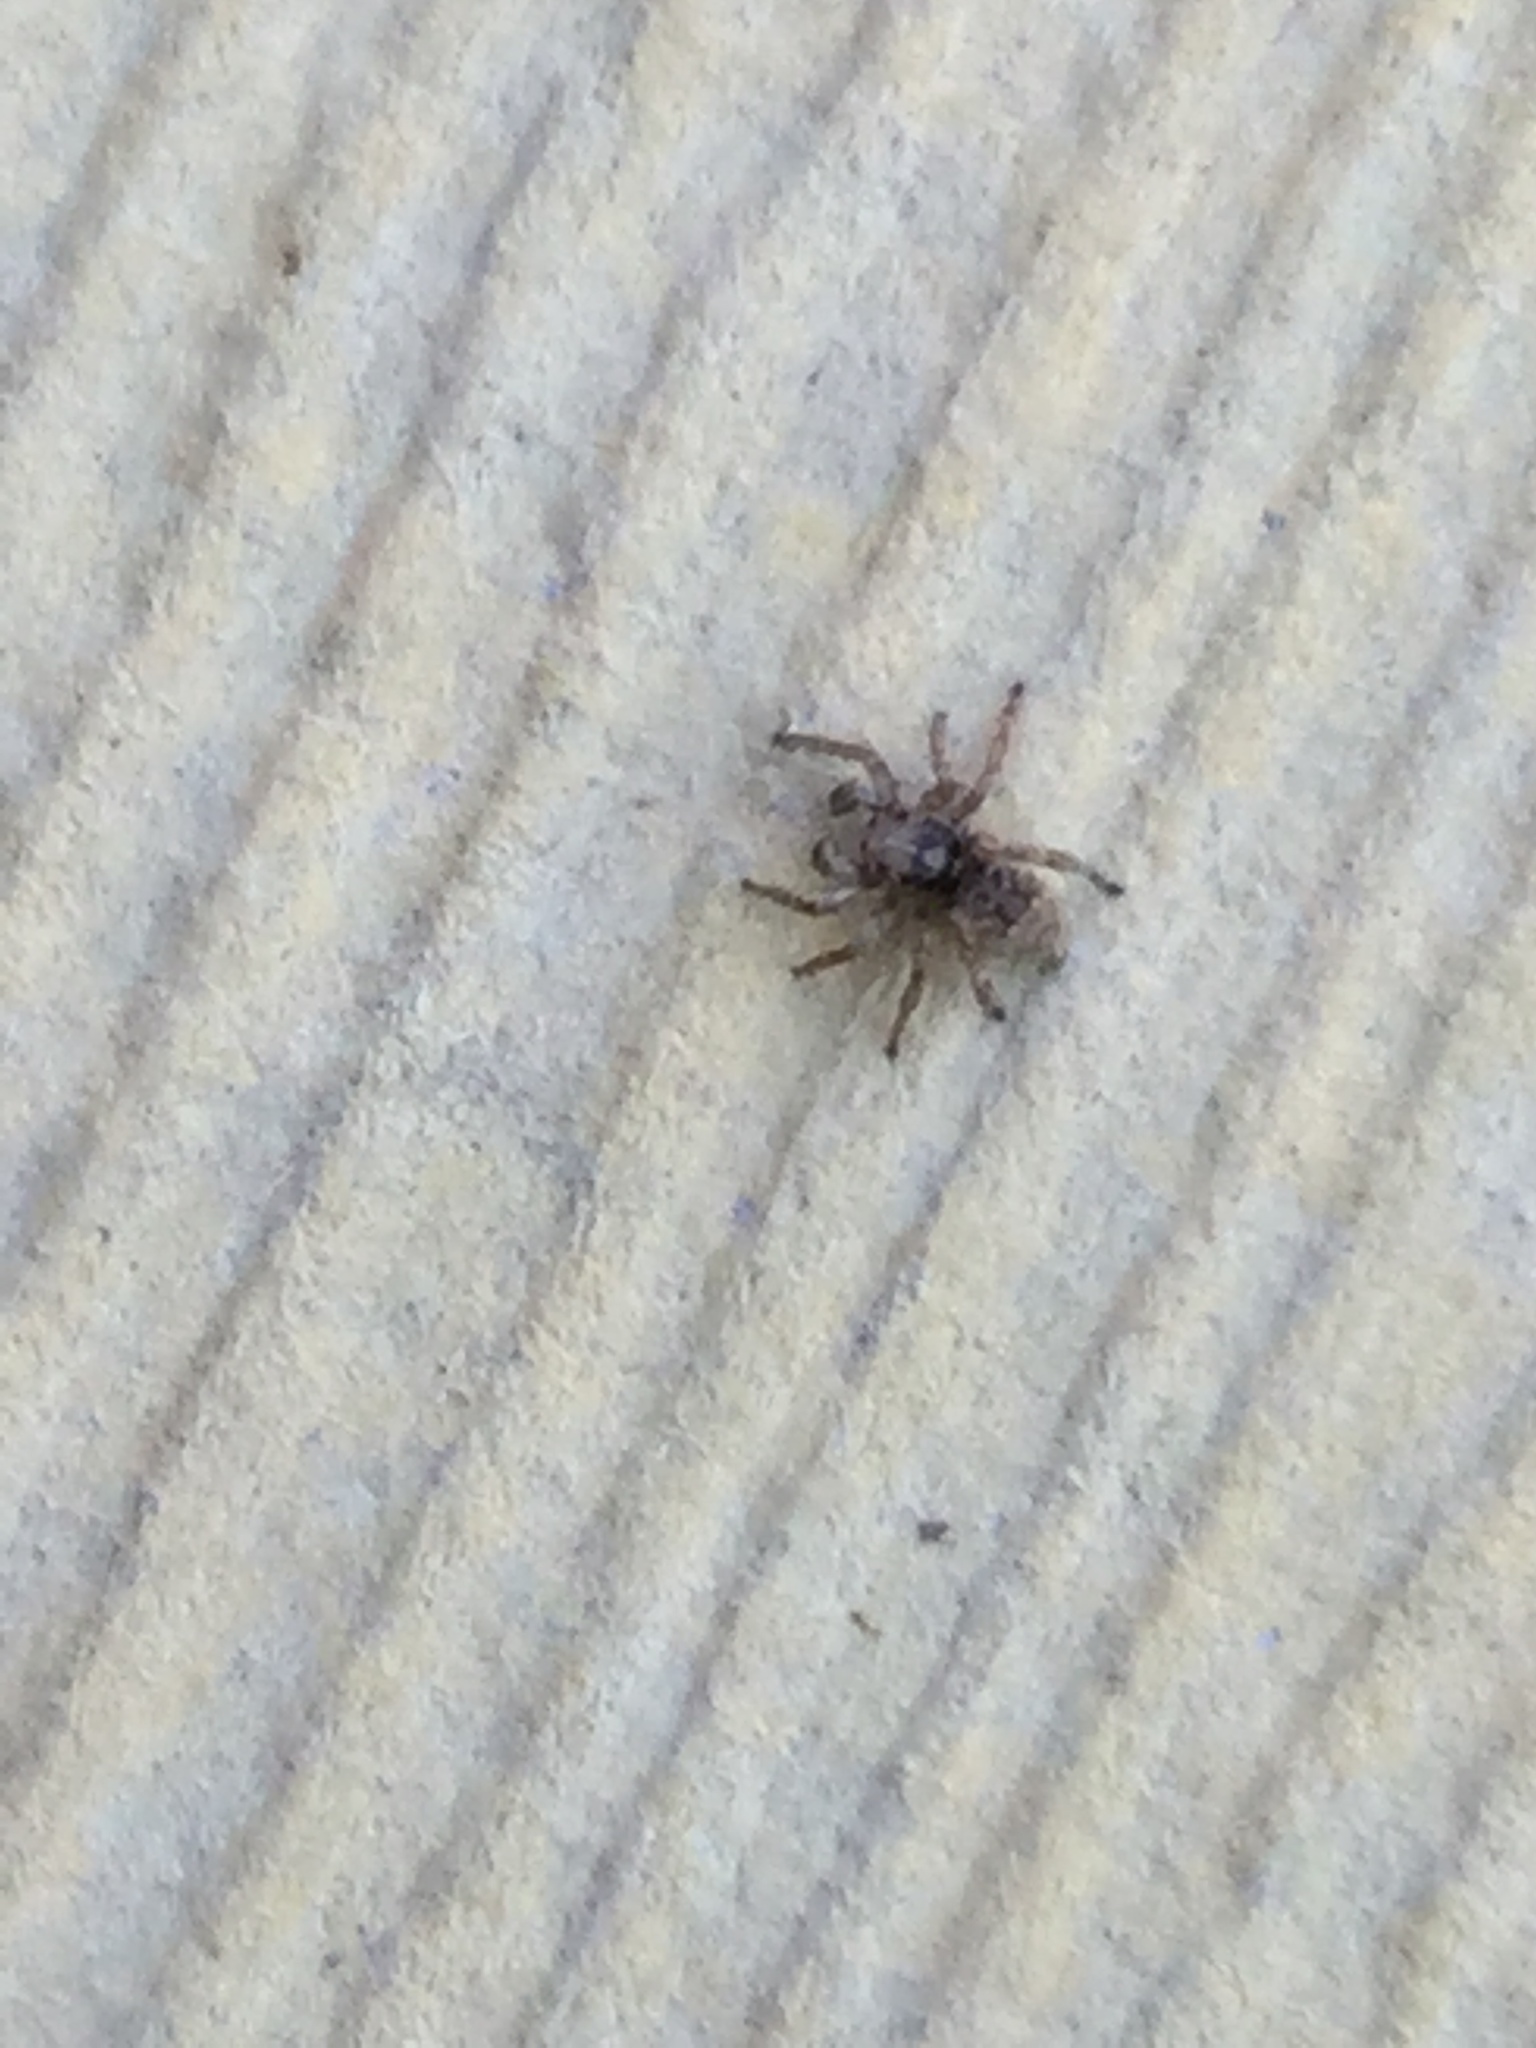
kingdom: Animalia
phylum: Arthropoda
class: Arachnida
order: Araneae
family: Salticidae
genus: Attulus
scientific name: Attulus fasciger
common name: Asiatic wall jumping spider
